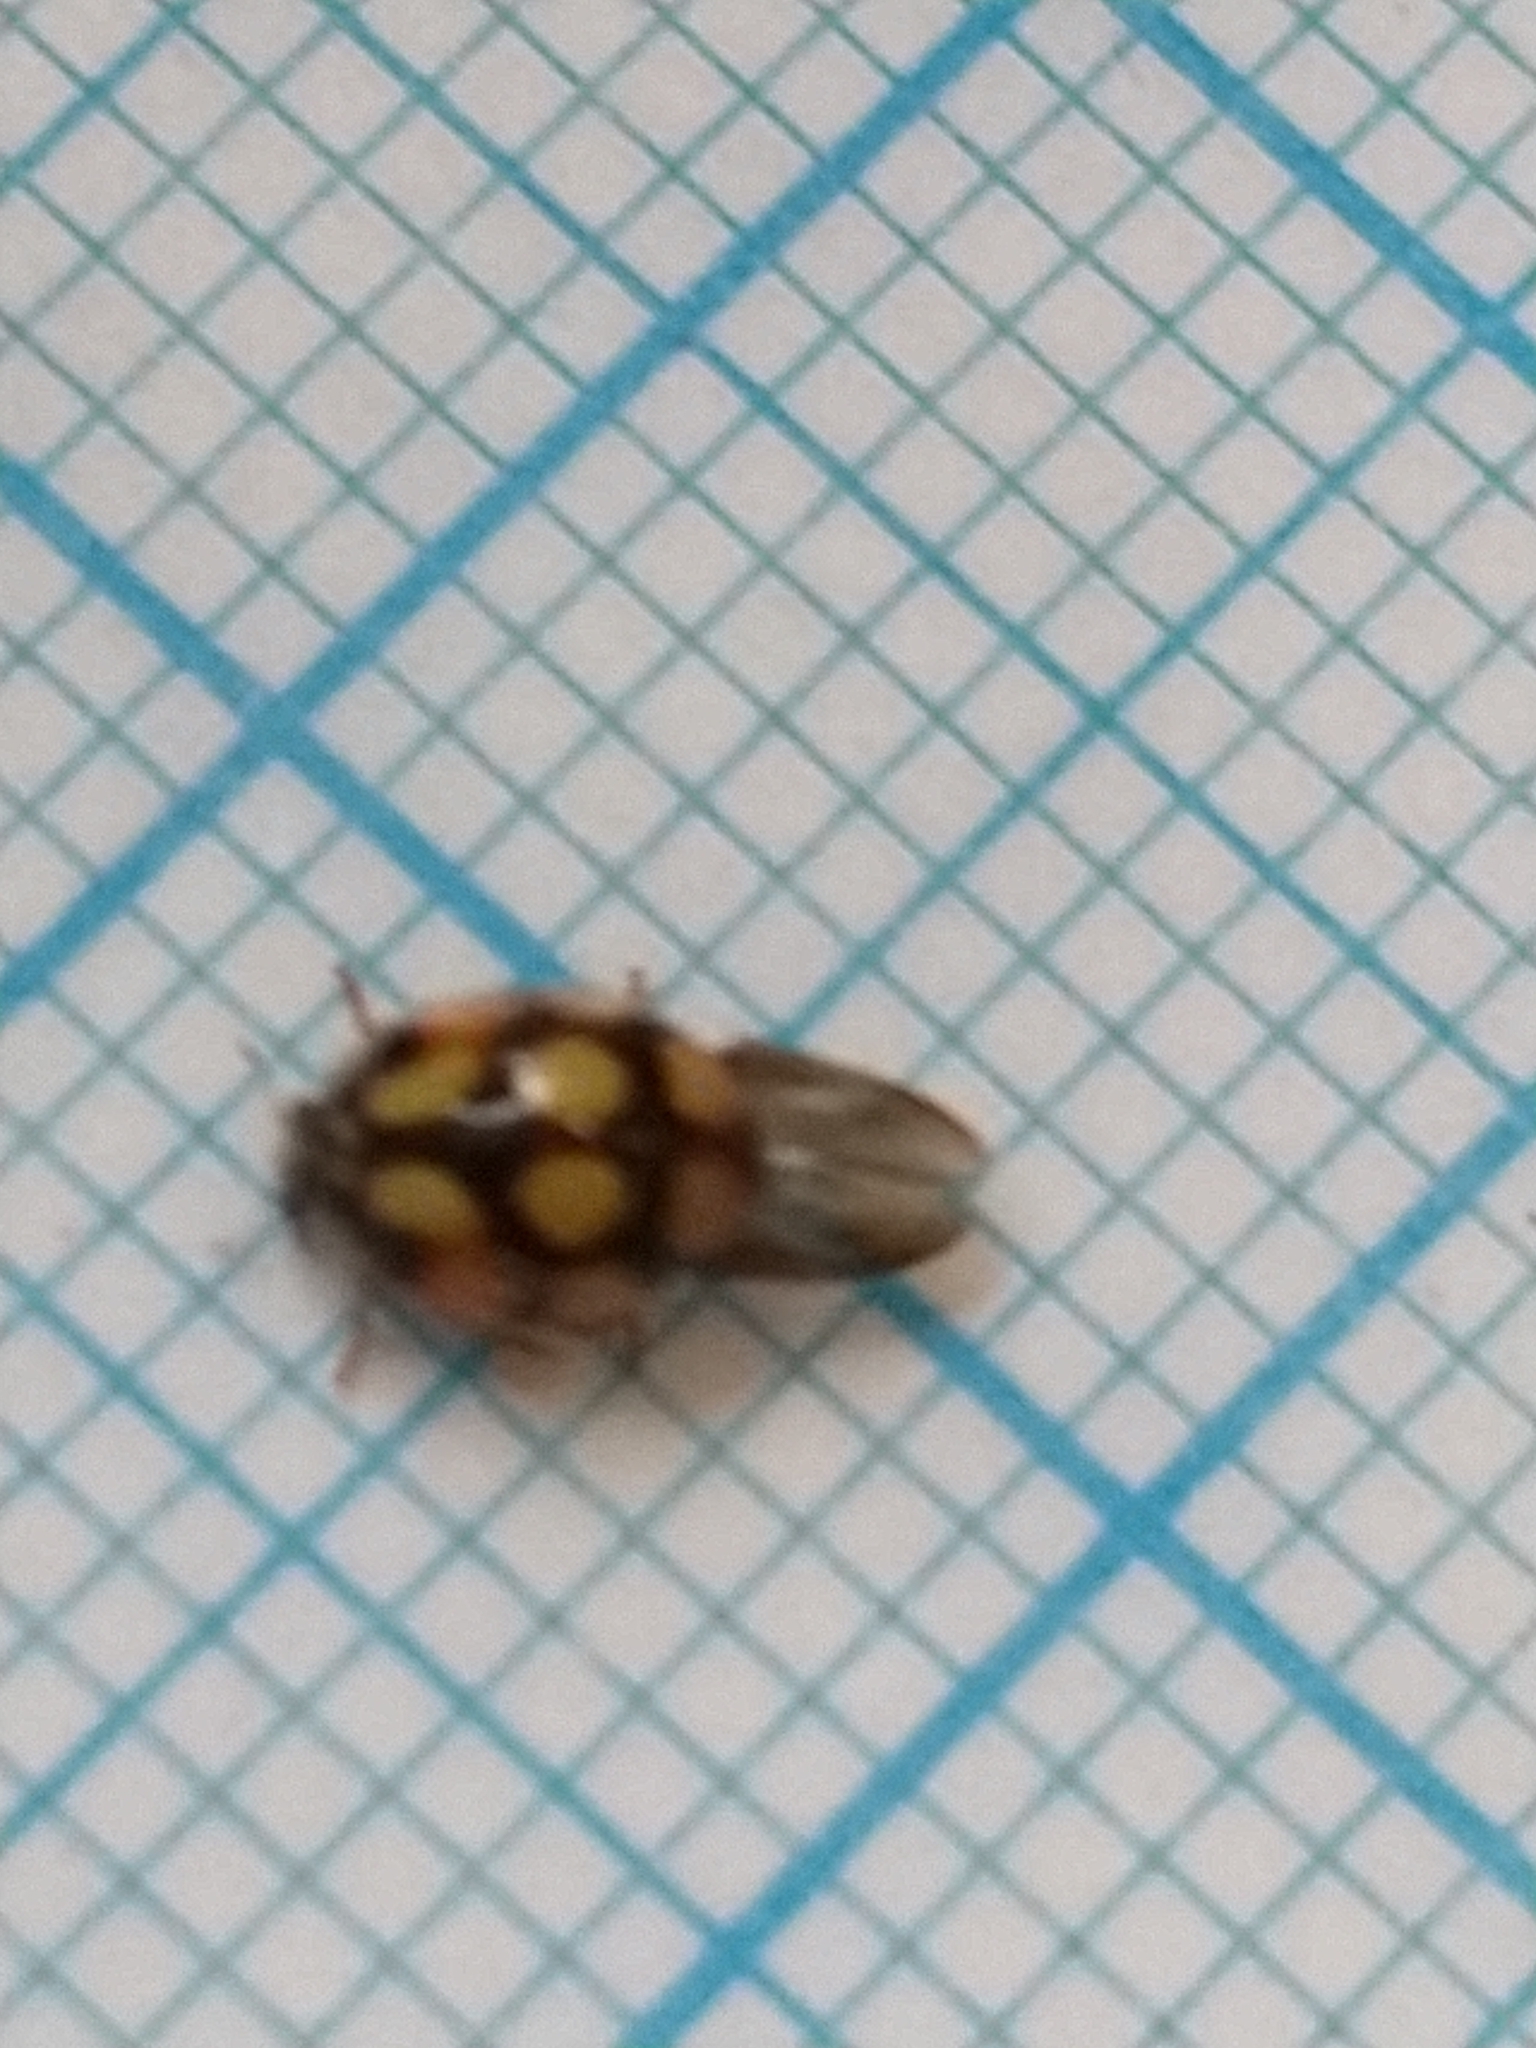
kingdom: Animalia
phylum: Arthropoda
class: Insecta
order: Coleoptera
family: Coccinellidae
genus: Adalia
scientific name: Adalia decempunctata
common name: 10-spot ladybird
